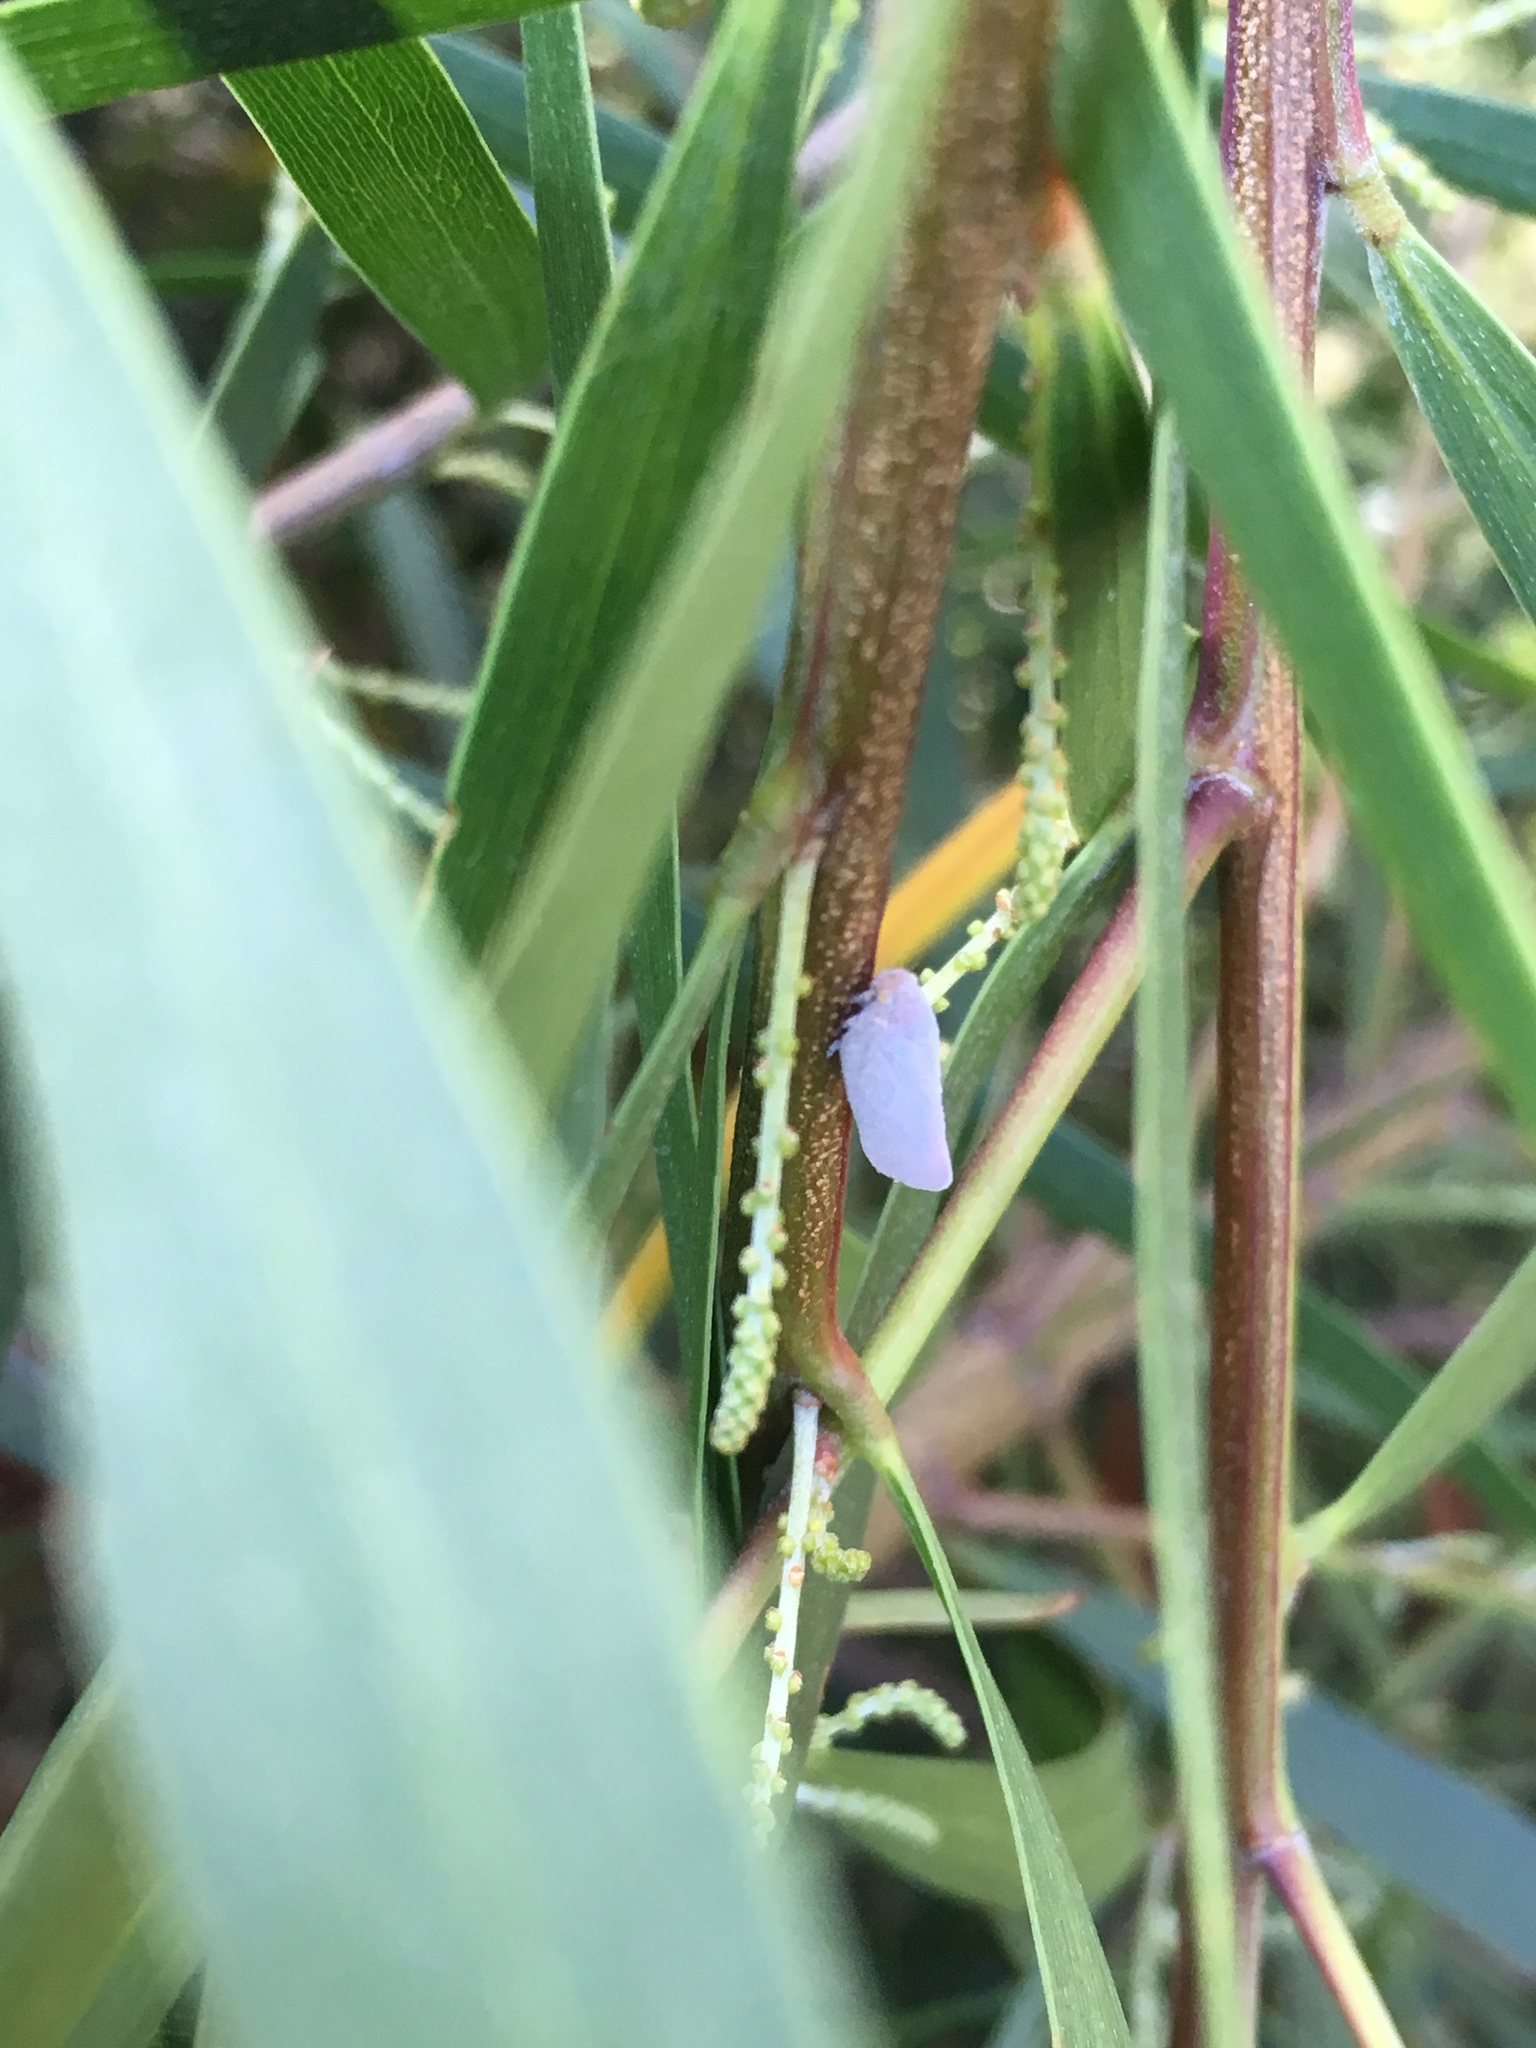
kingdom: Animalia
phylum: Arthropoda
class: Insecta
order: Hemiptera
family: Flatidae
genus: Anzora
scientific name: Anzora unicolor
